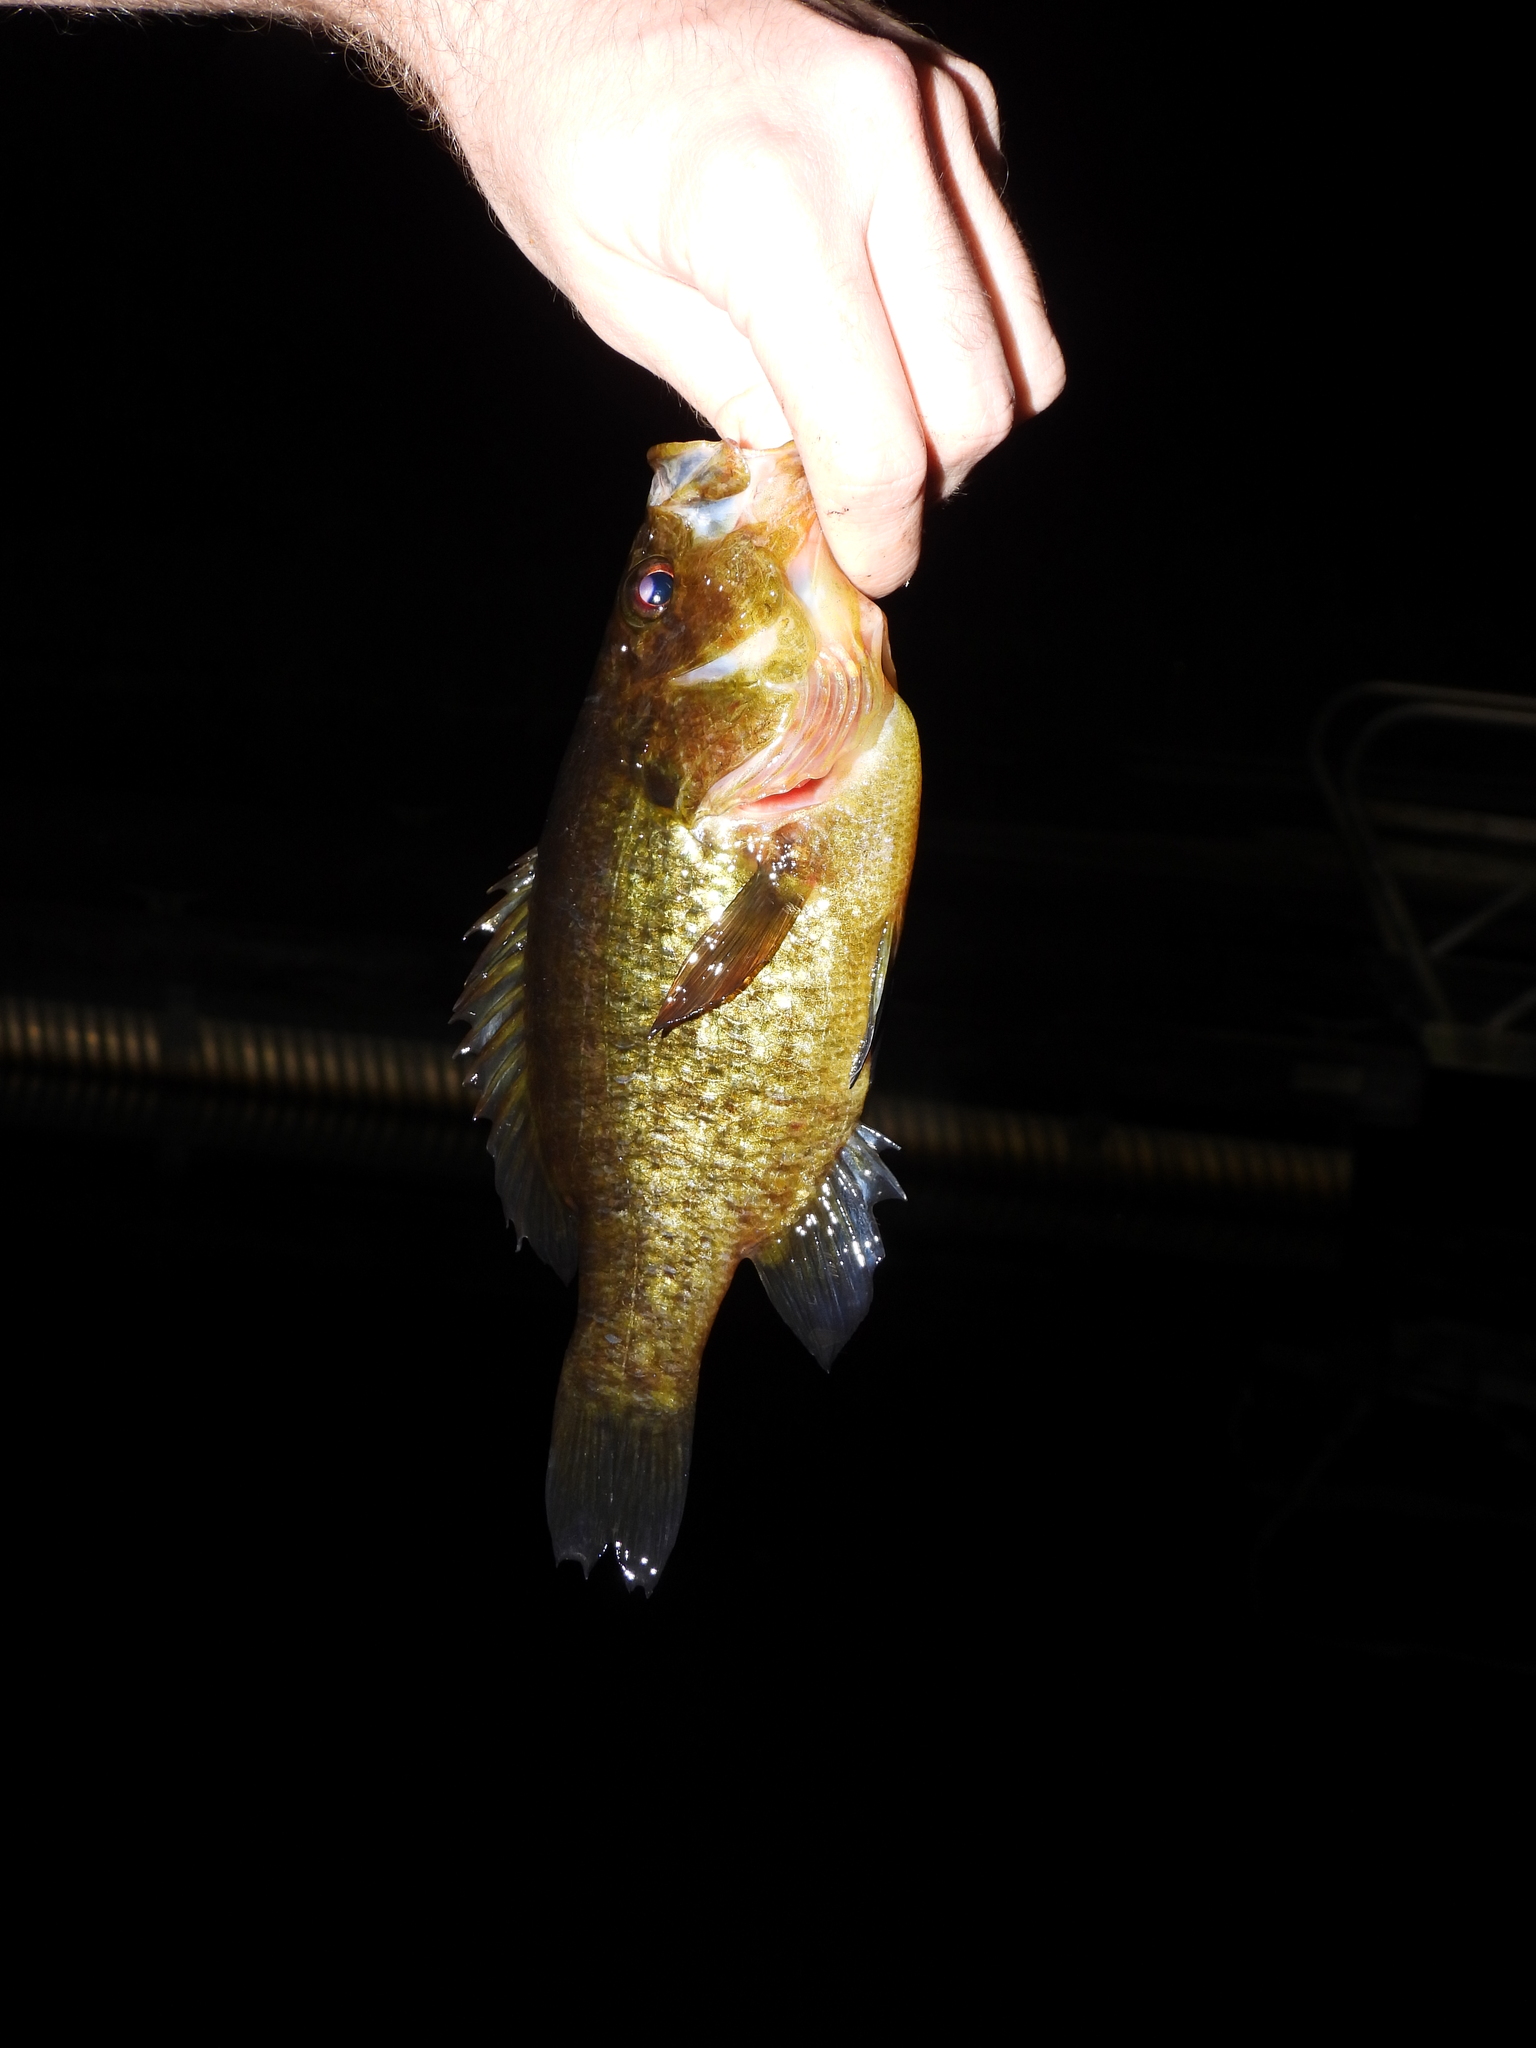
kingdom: Animalia
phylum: Chordata
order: Perciformes
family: Centrarchidae
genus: Lepomis
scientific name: Lepomis gulosus
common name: Warmouth
